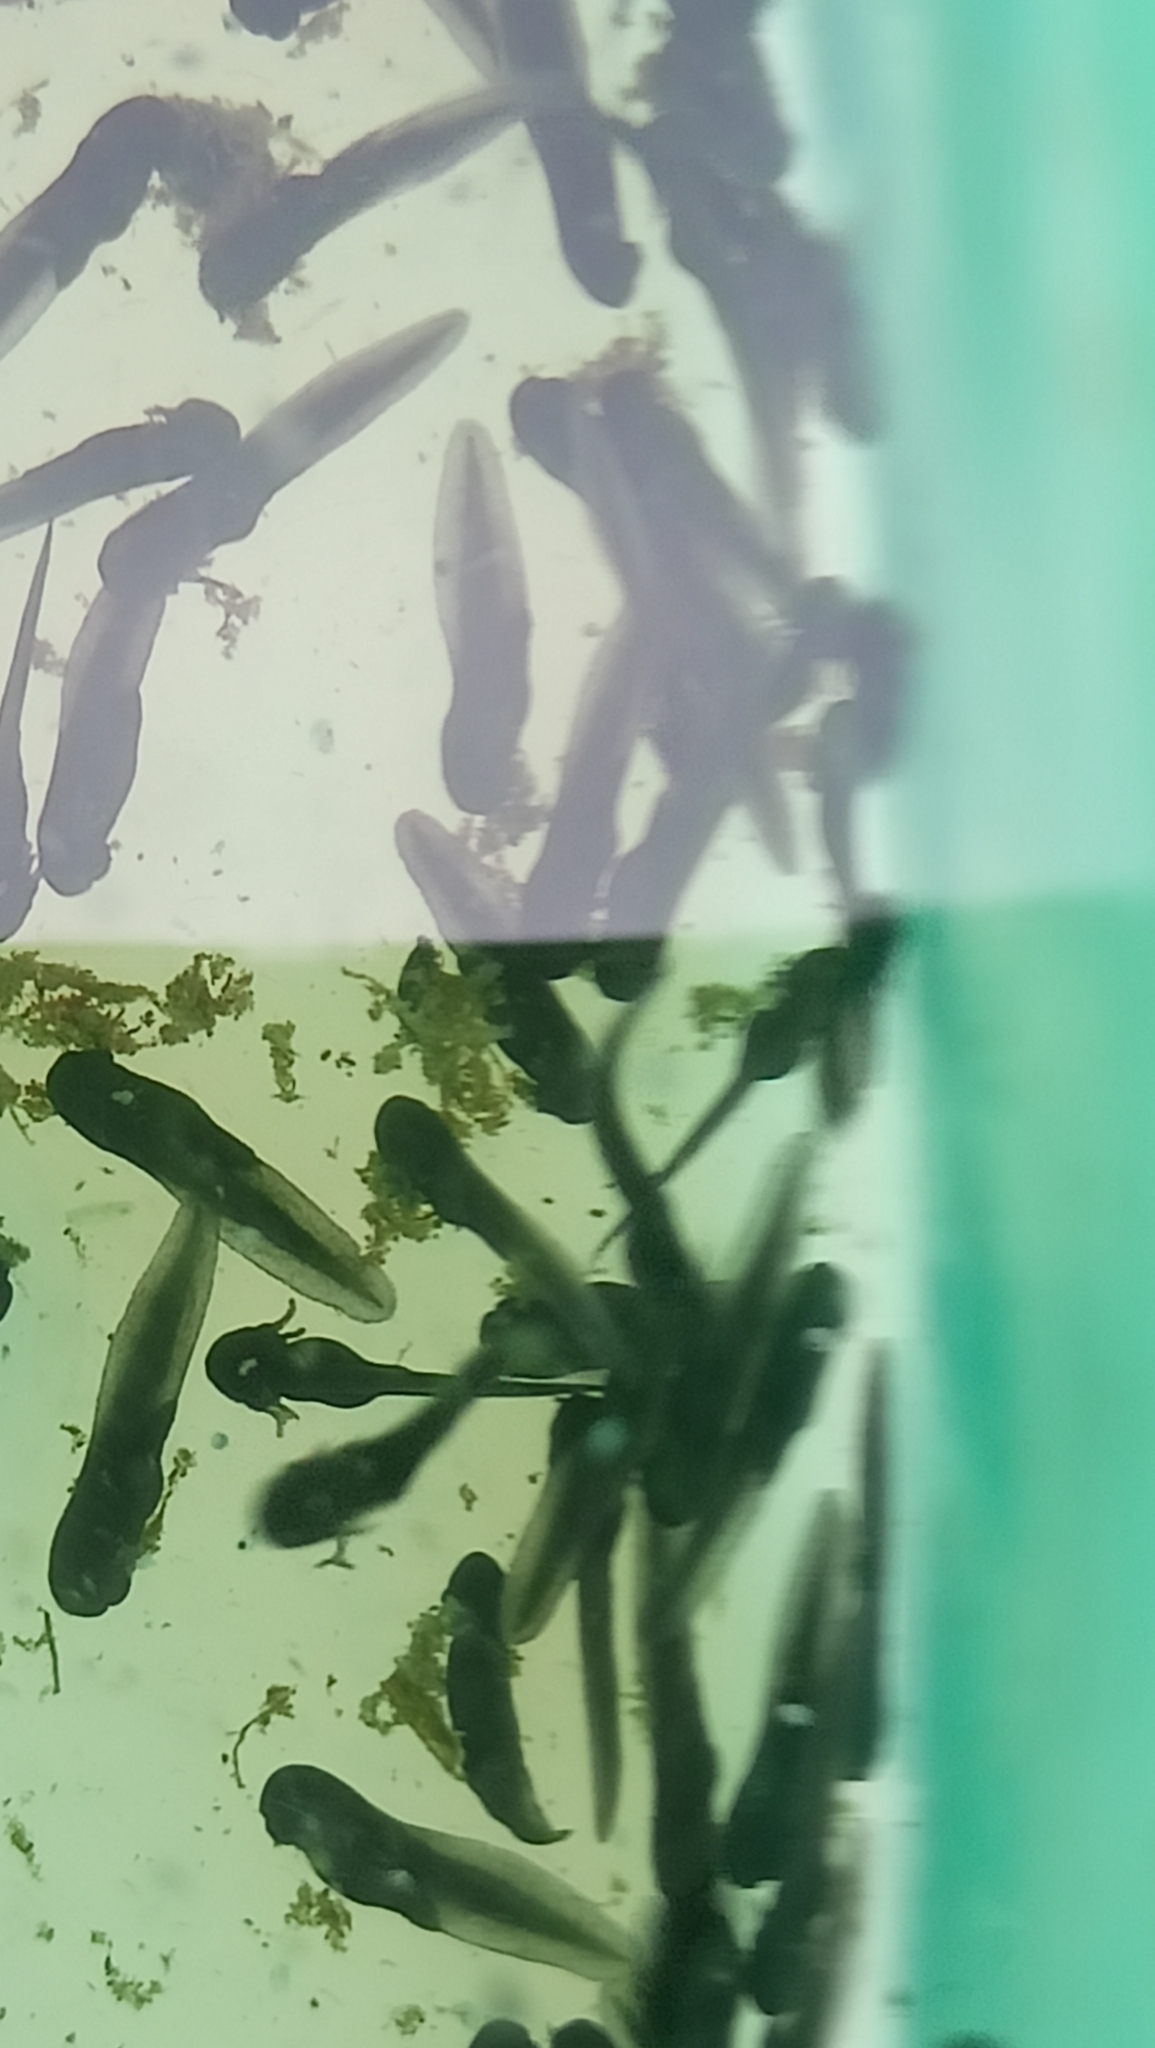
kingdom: Animalia
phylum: Chordata
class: Amphibia
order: Anura
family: Bufonidae
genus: Bufotes
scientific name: Bufotes viridis
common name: European green toad
